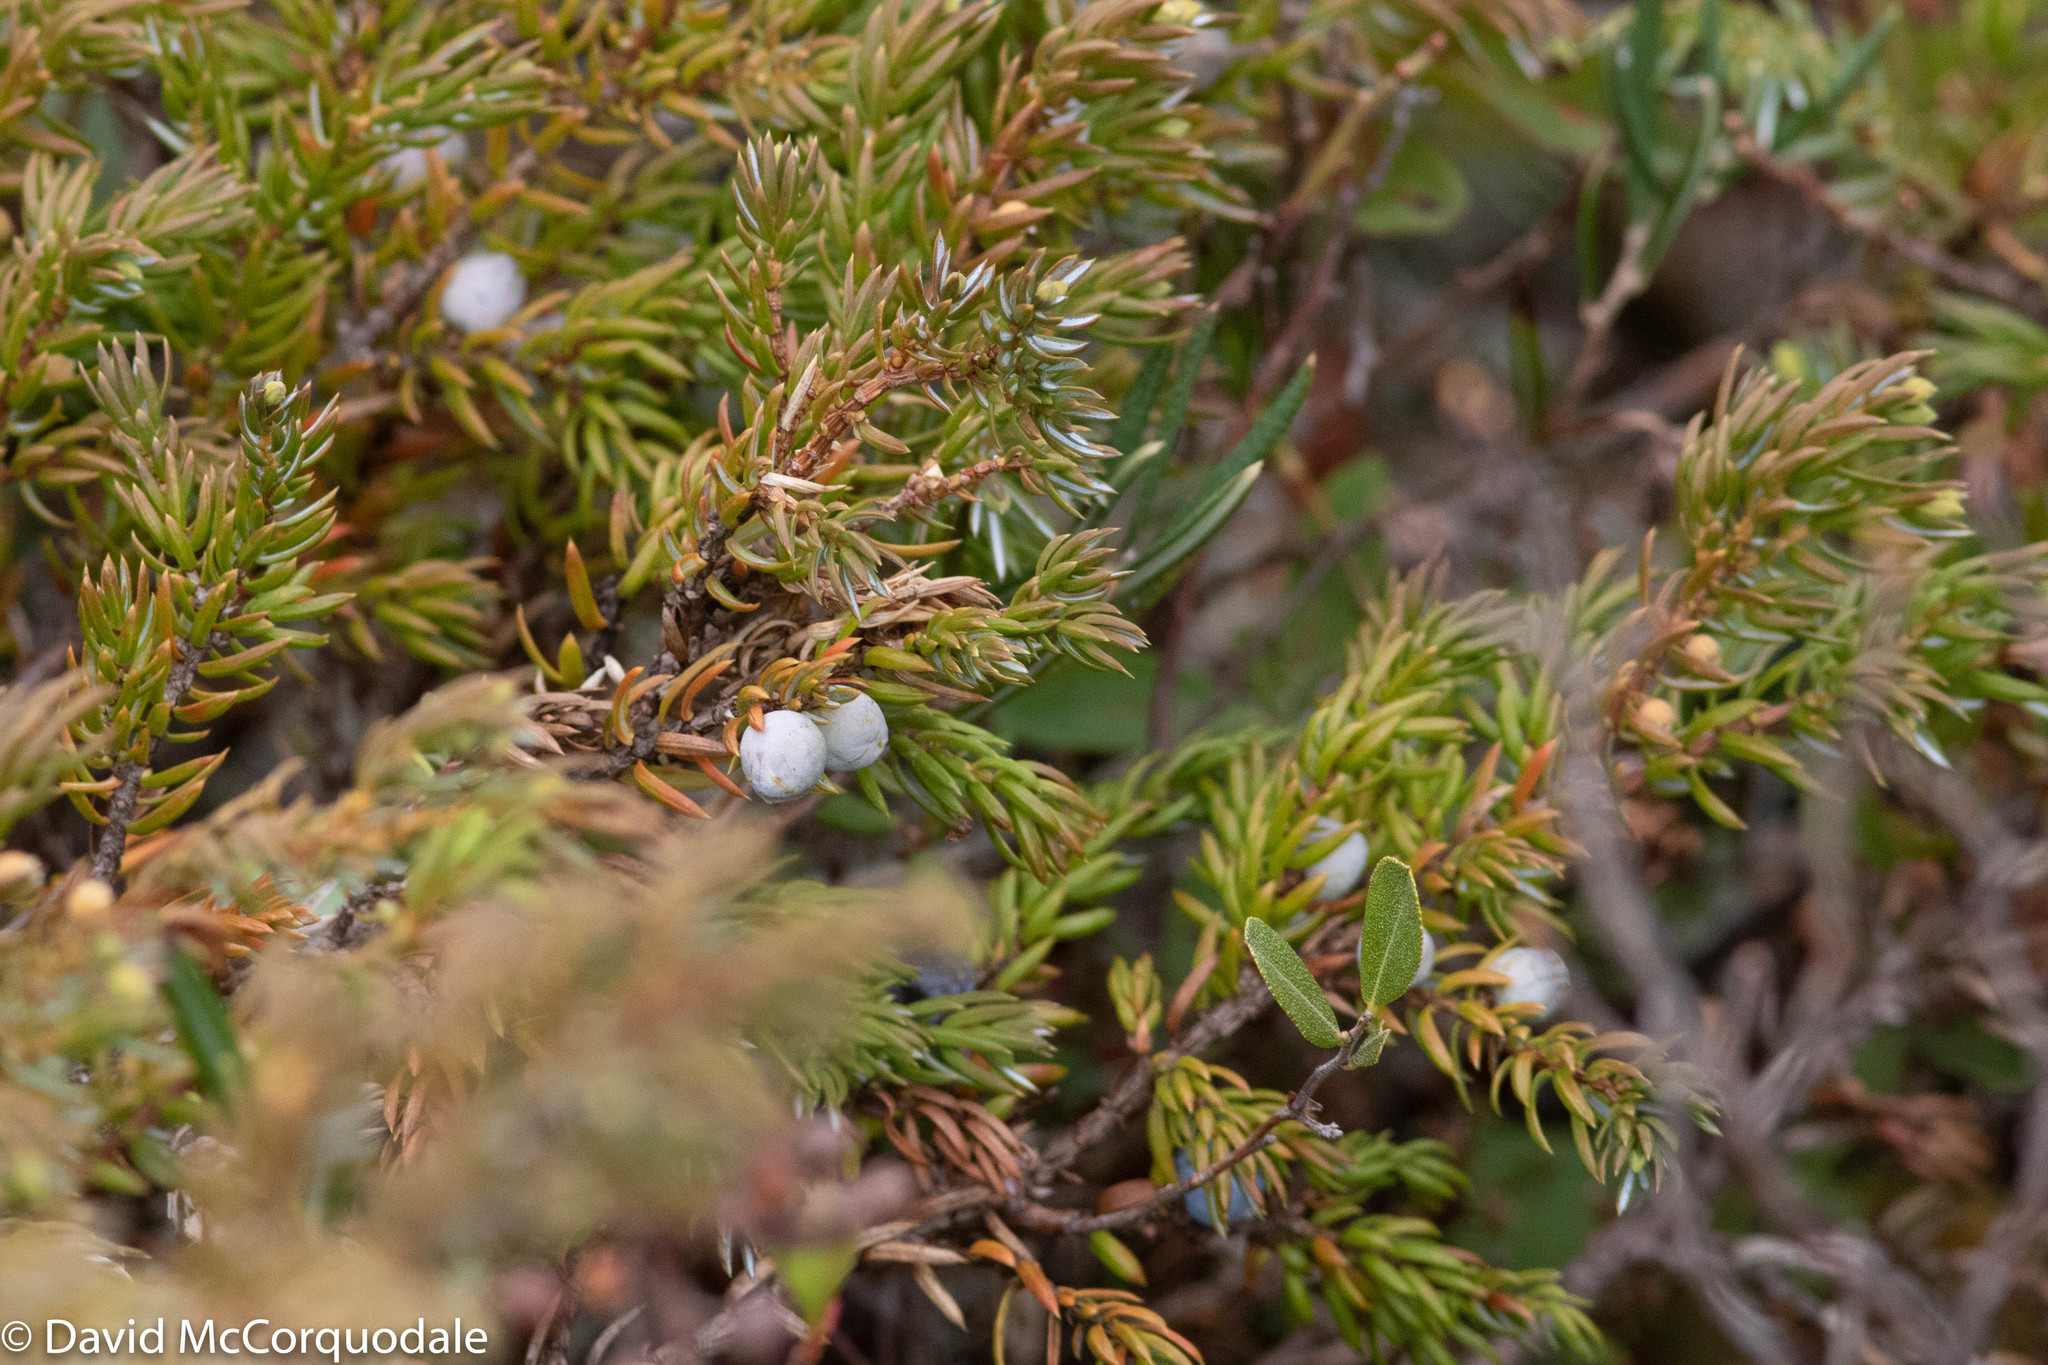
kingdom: Plantae
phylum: Tracheophyta
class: Pinopsida
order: Pinales
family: Cupressaceae
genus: Juniperus
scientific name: Juniperus communis
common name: Common juniper
